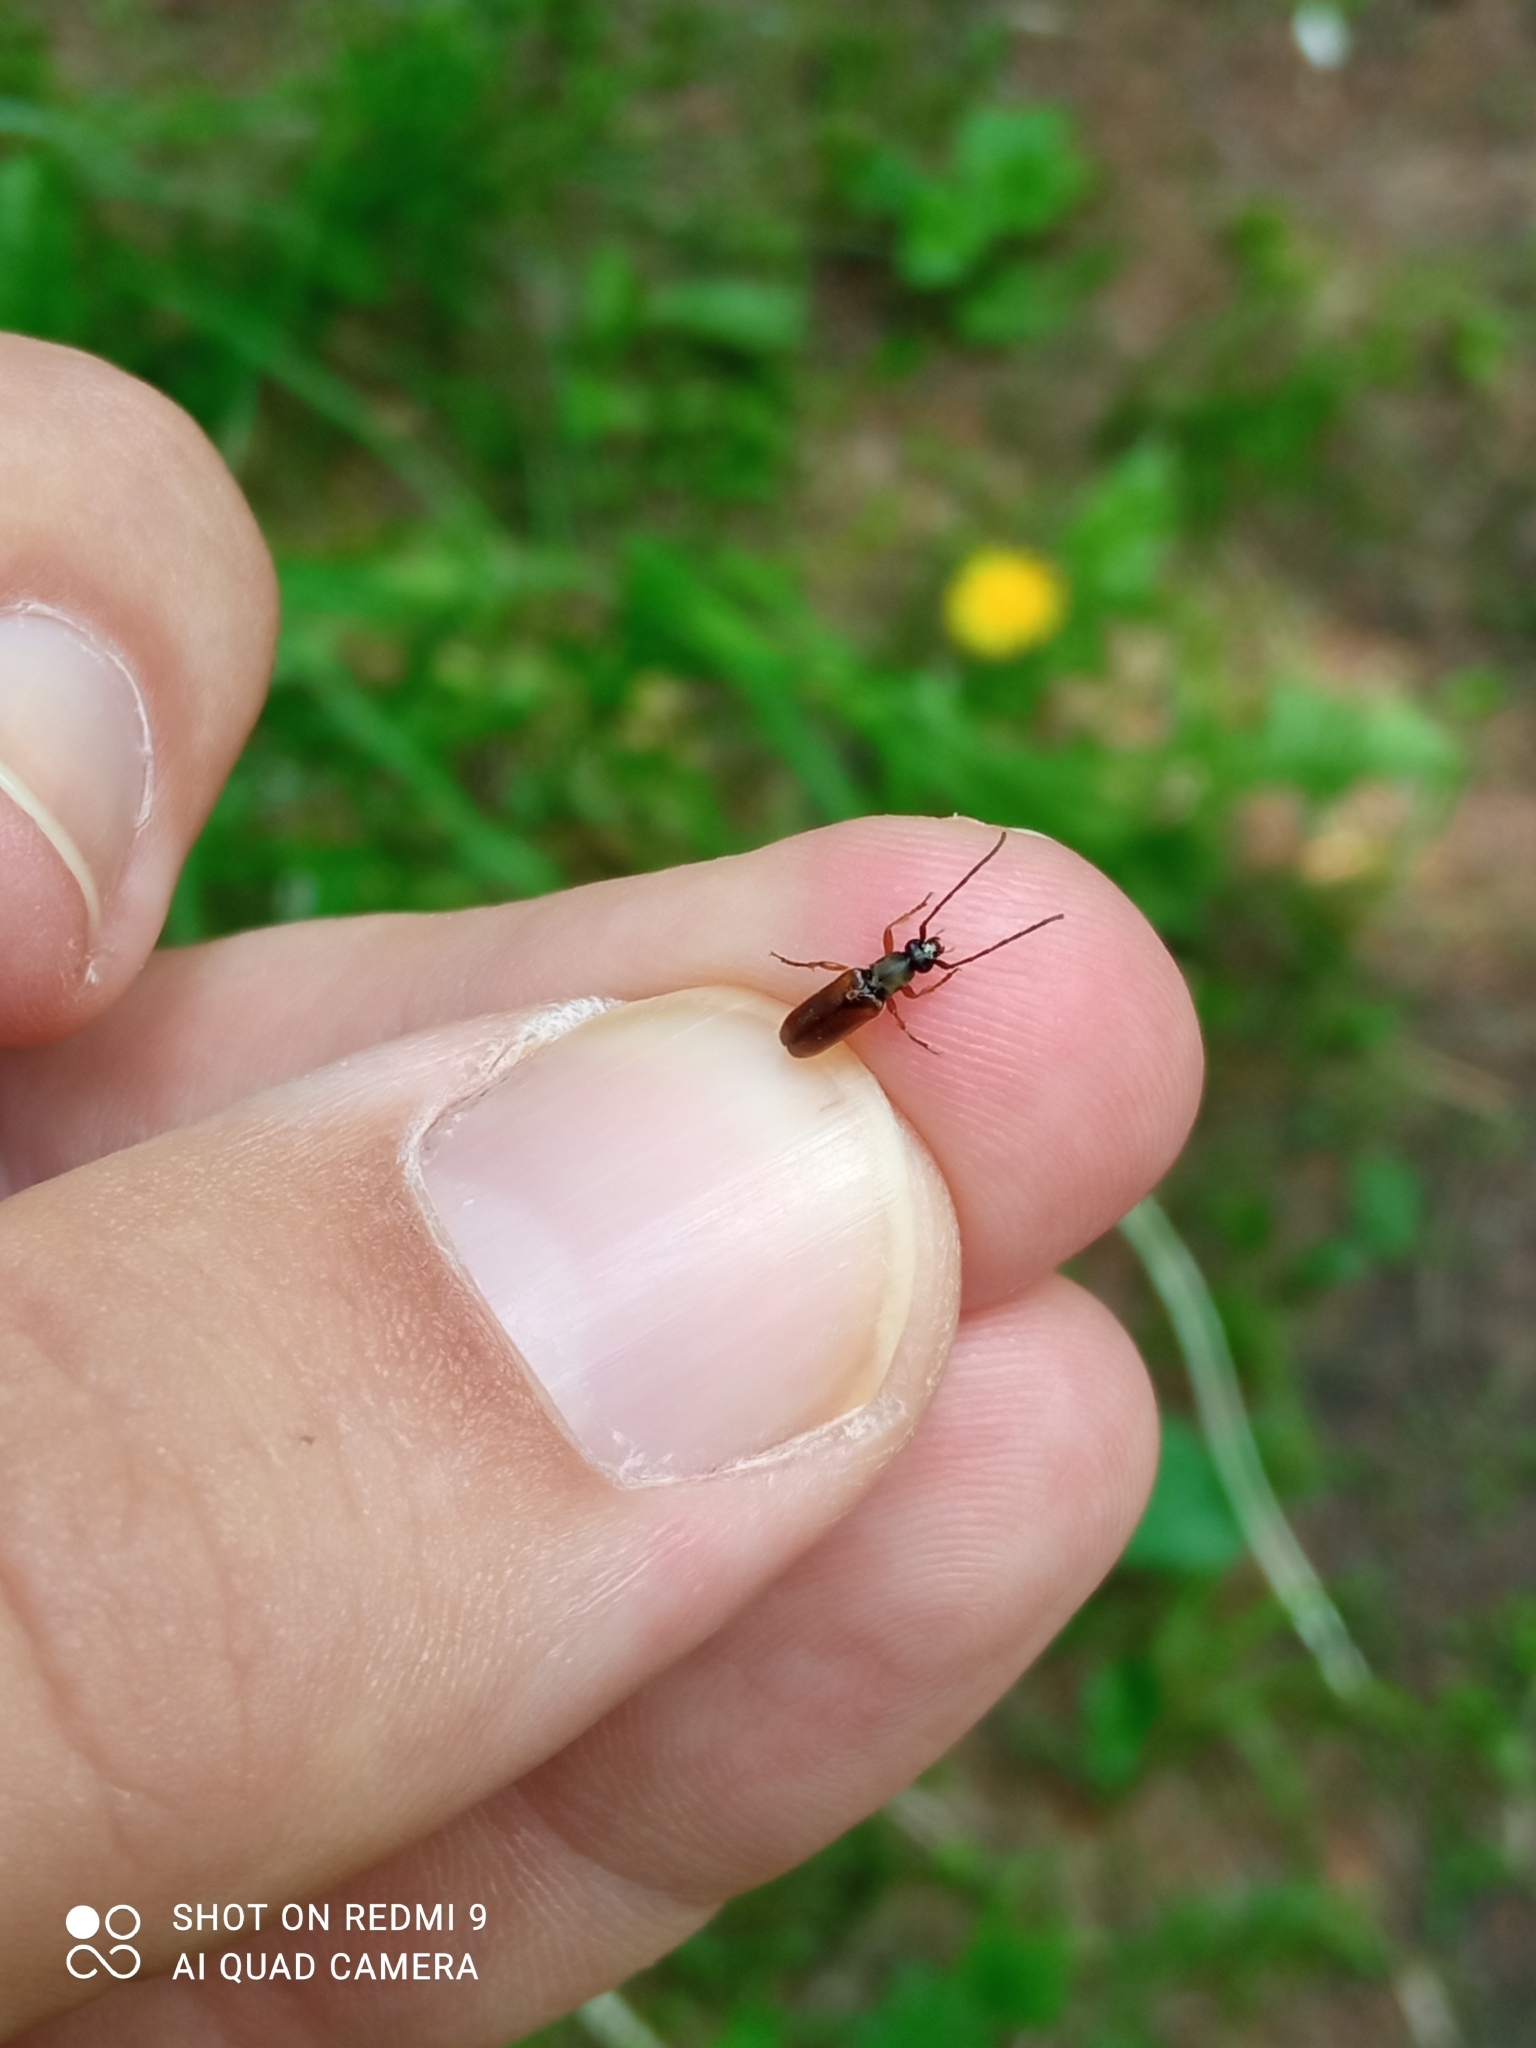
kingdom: Animalia
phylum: Arthropoda
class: Insecta
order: Coleoptera
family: Cerambycidae
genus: Alosterna
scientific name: Alosterna tabacicolor
